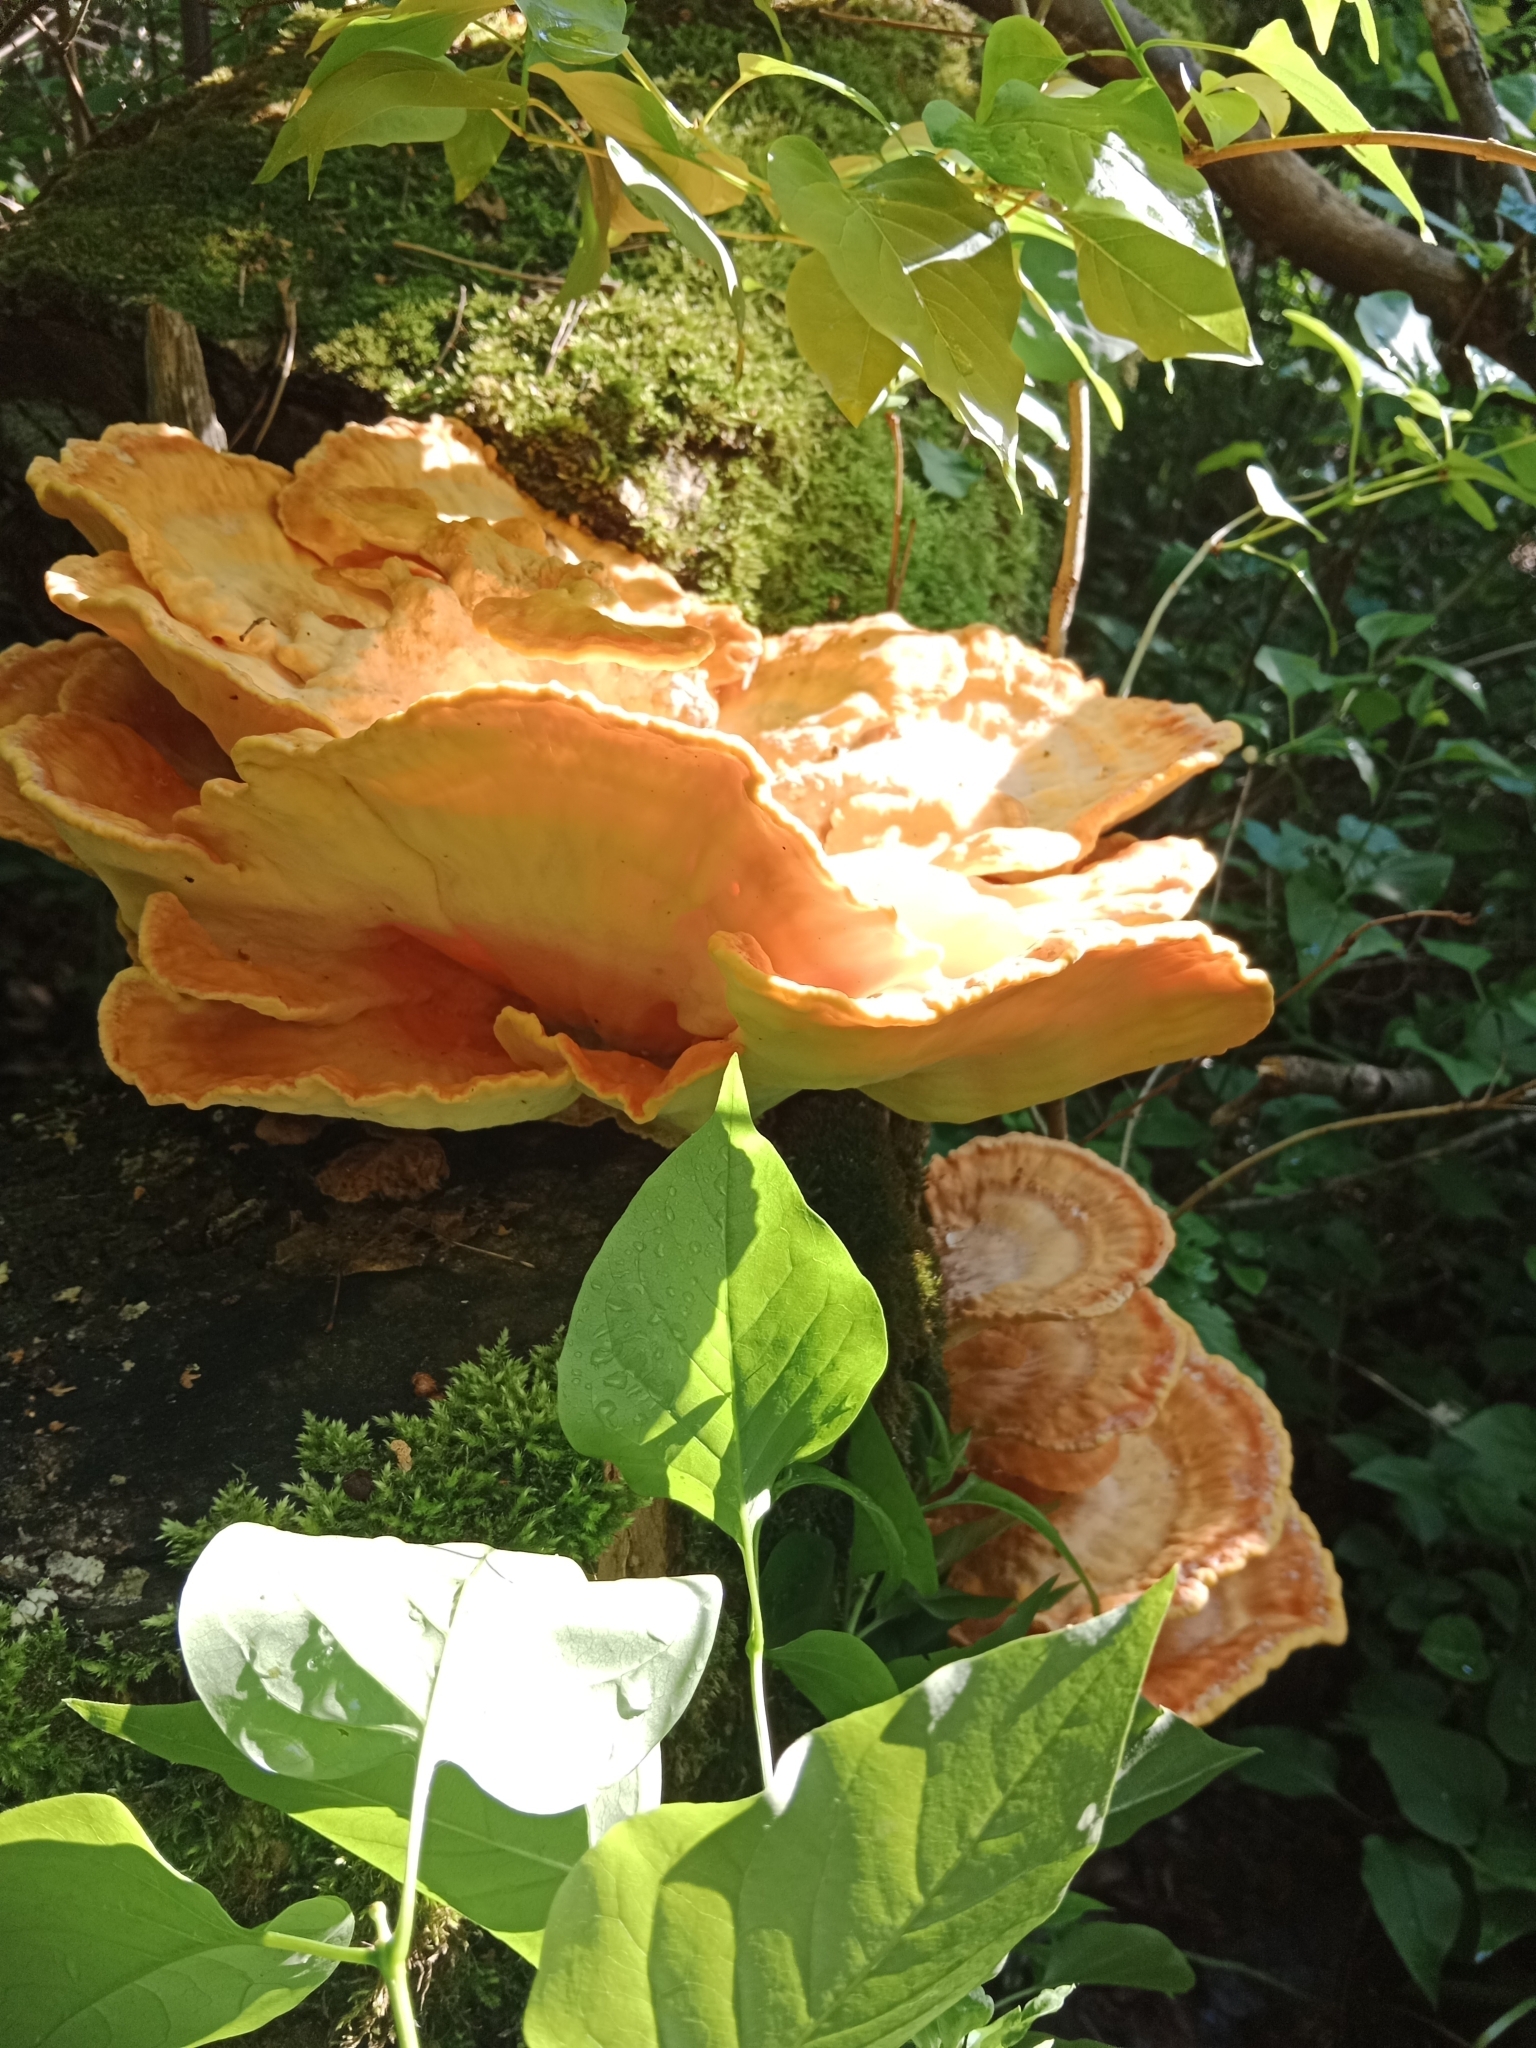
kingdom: Fungi
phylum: Basidiomycota
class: Agaricomycetes
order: Polyporales
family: Laetiporaceae
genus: Laetiporus
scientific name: Laetiporus sulphureus
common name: Chicken of the woods
